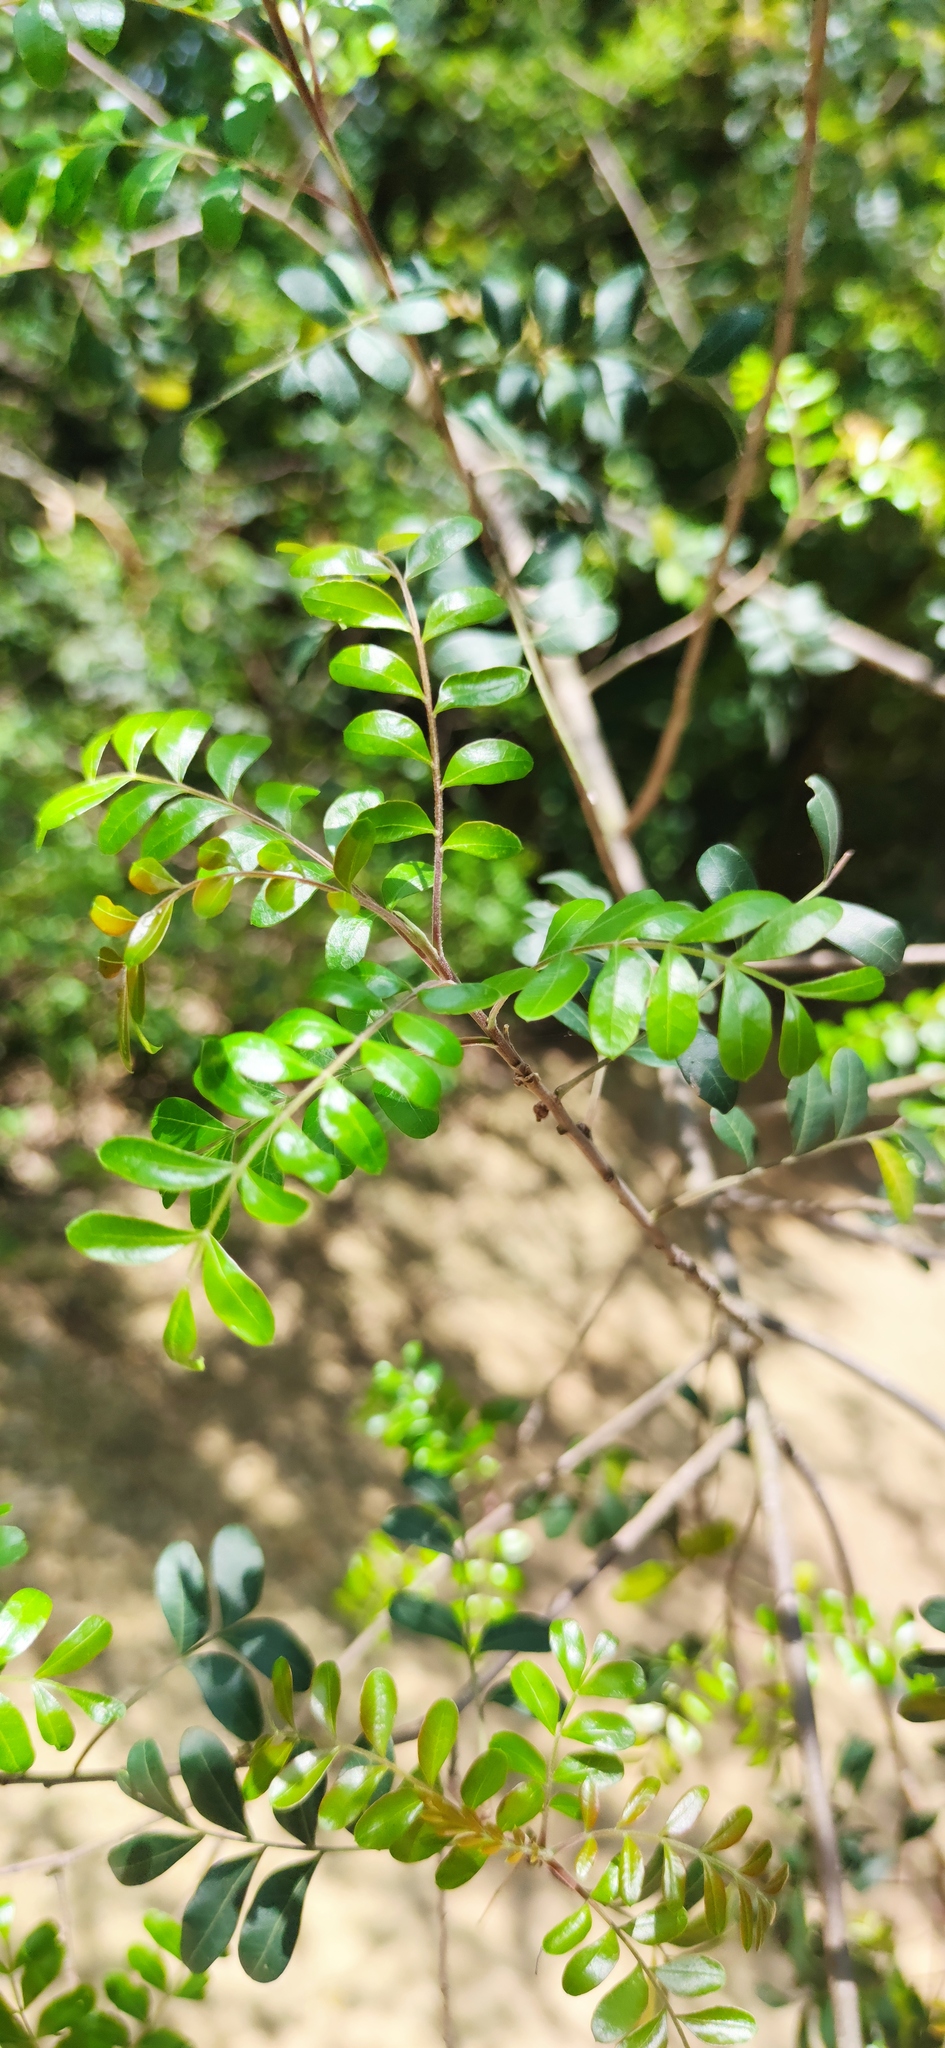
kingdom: Plantae
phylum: Tracheophyta
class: Magnoliopsida
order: Sapindales
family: Anacardiaceae
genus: Pistacia
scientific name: Pistacia mexicana
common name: Mexican pistachio
